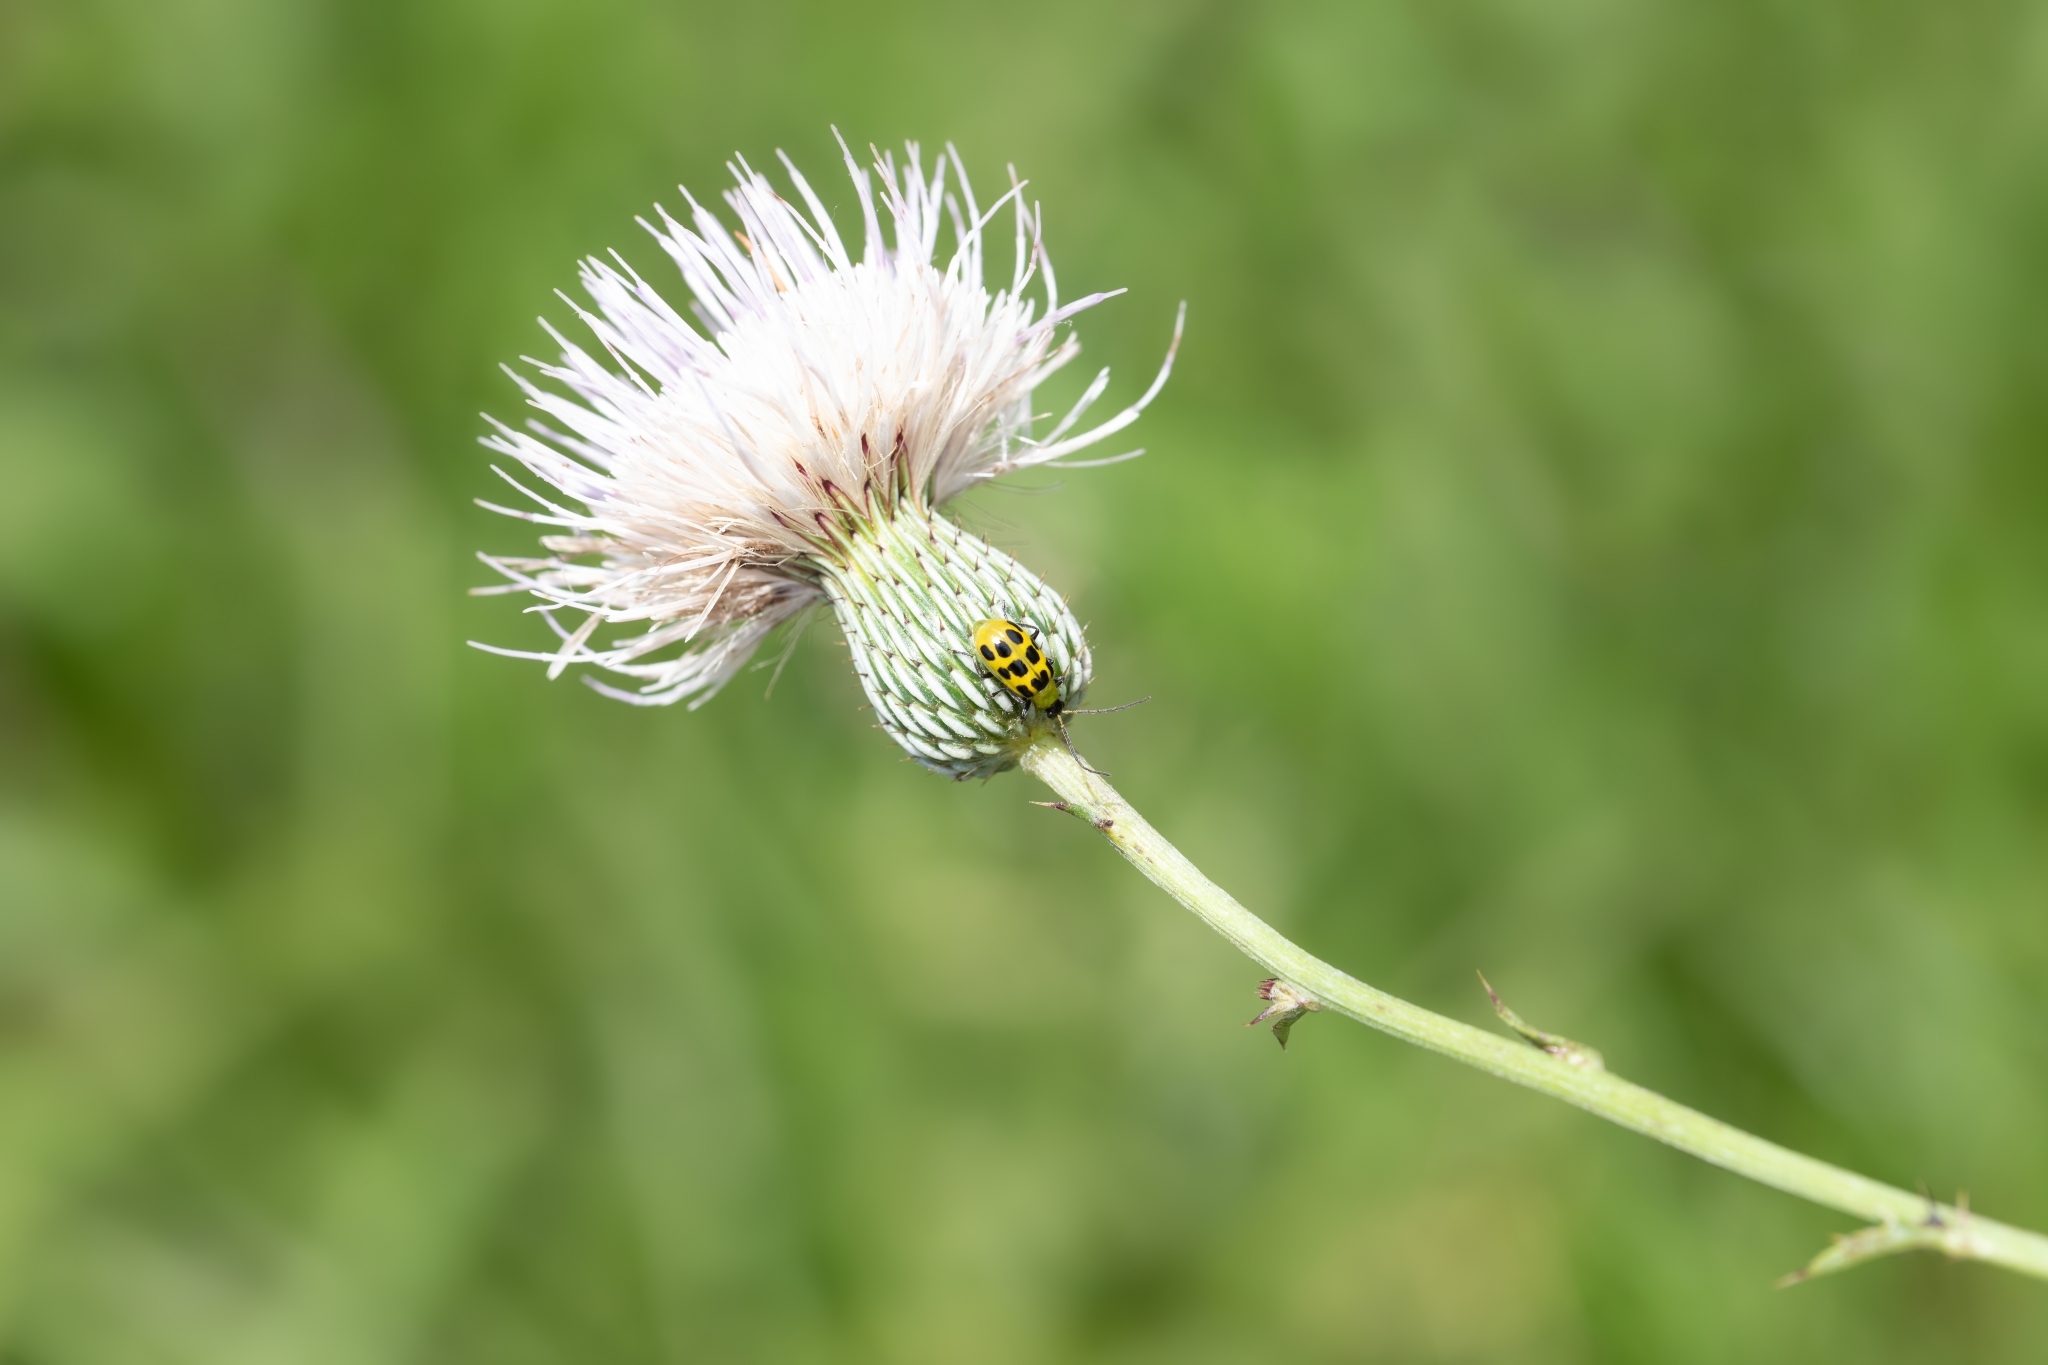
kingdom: Animalia
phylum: Arthropoda
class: Insecta
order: Coleoptera
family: Chrysomelidae
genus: Diabrotica
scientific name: Diabrotica undecimpunctata
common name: Spotted cucumber beetle
